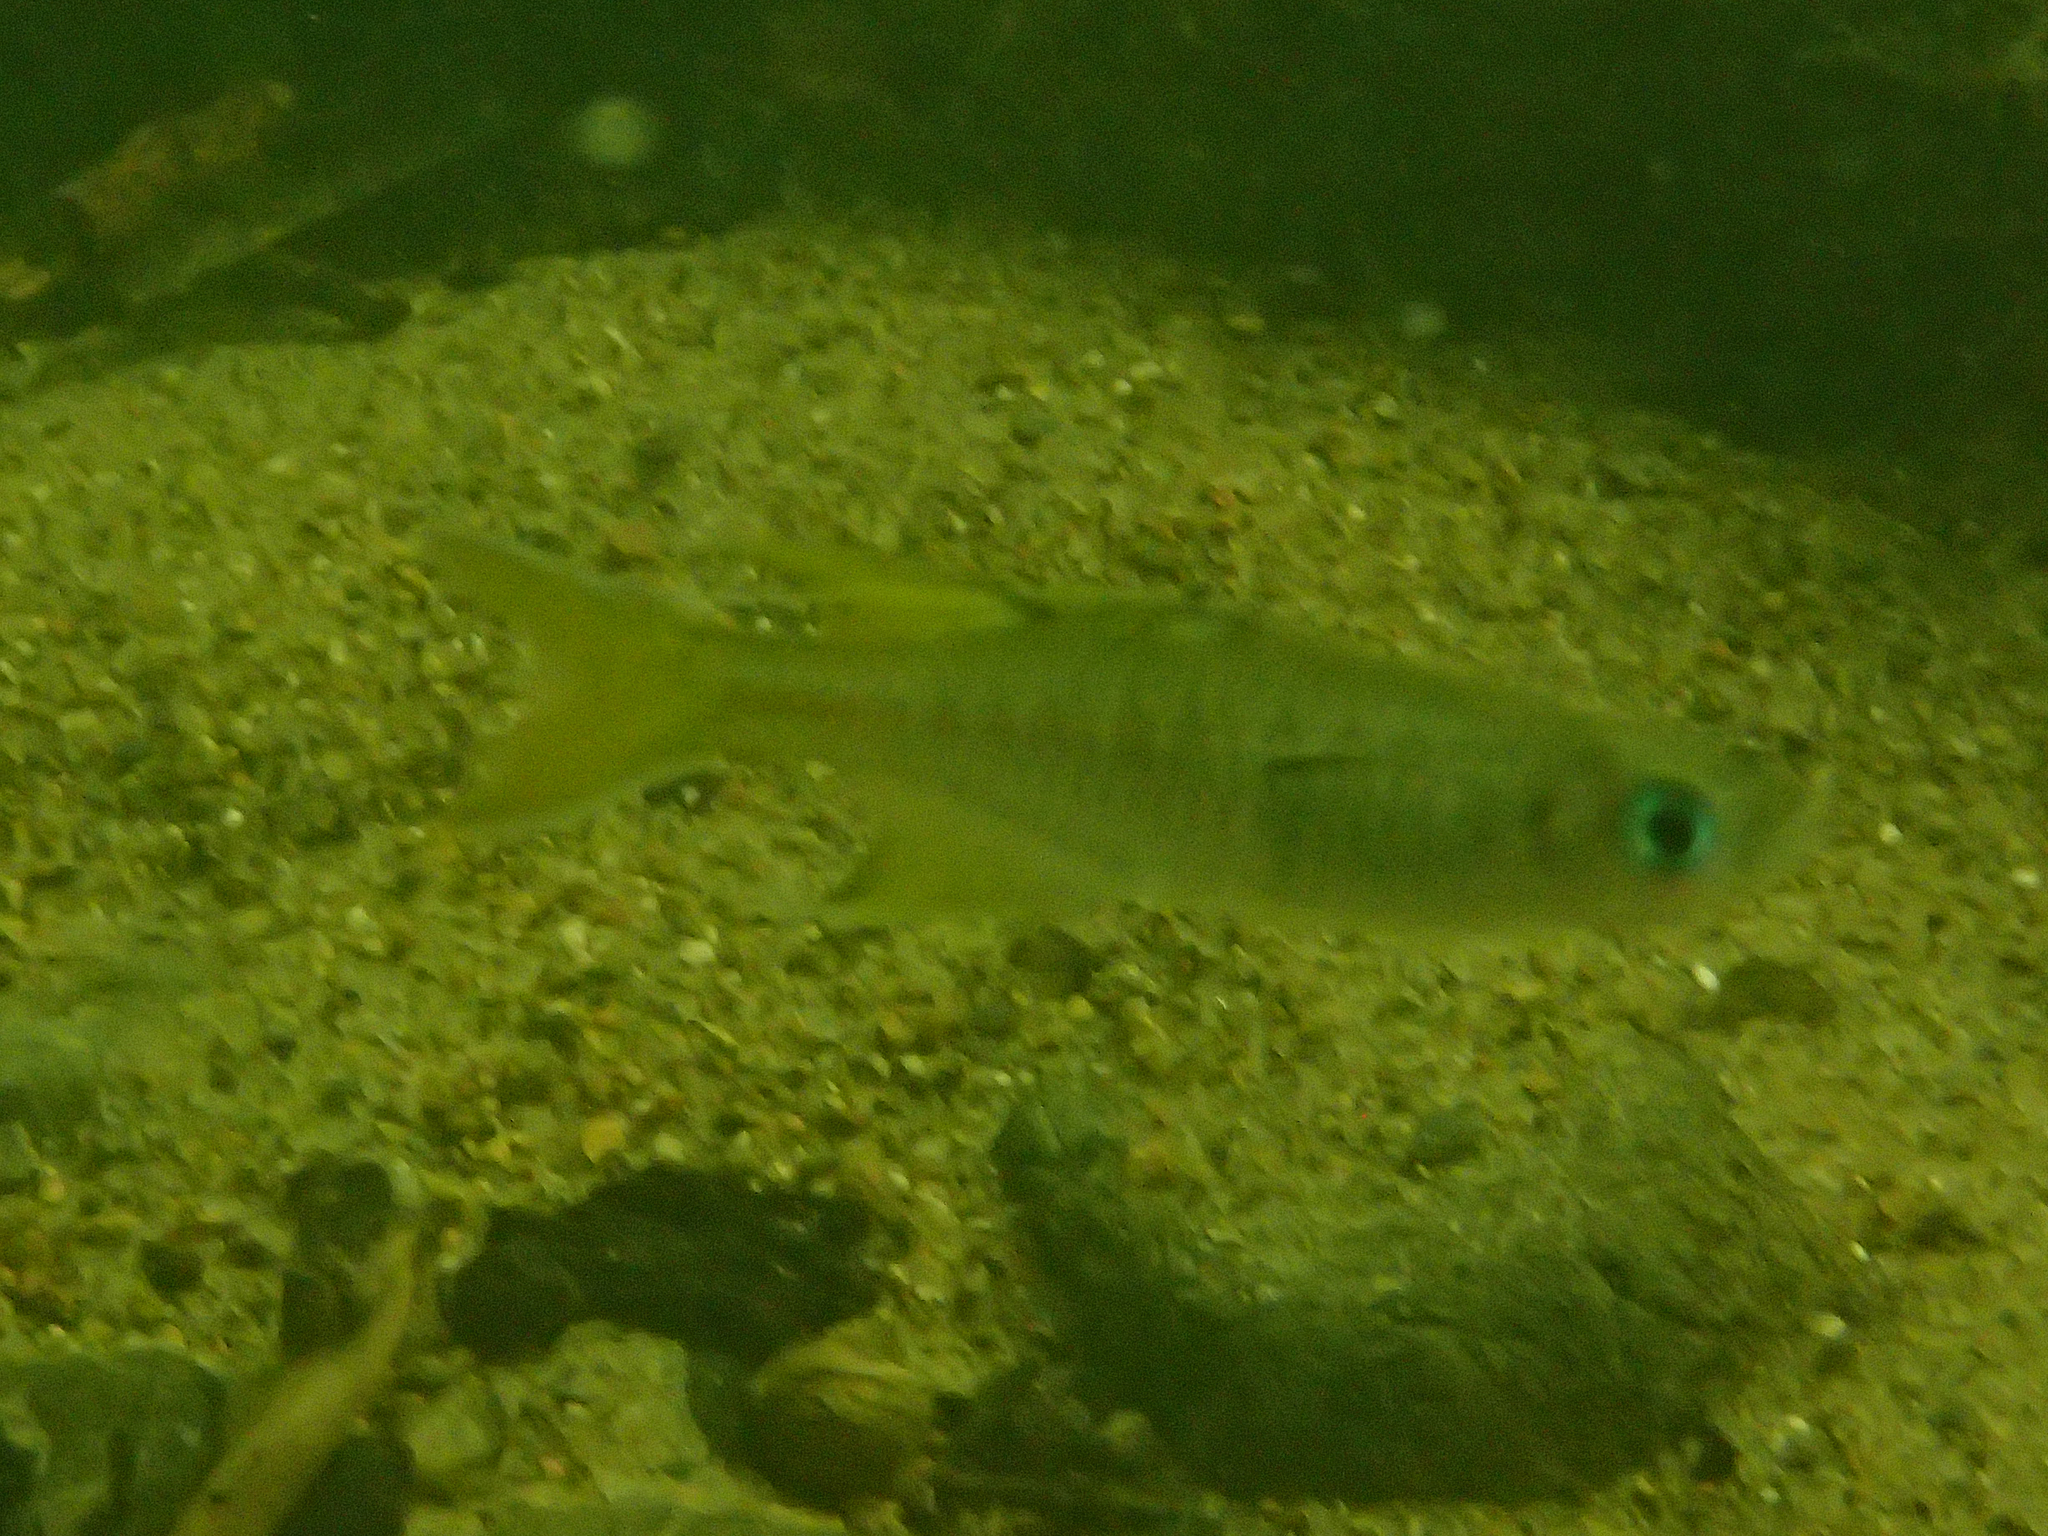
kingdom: Animalia
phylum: Chordata
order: Atheriniformes
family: Pseudomugilidae
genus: Pseudomugil
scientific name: Pseudomugil signifer
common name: Blue eye
